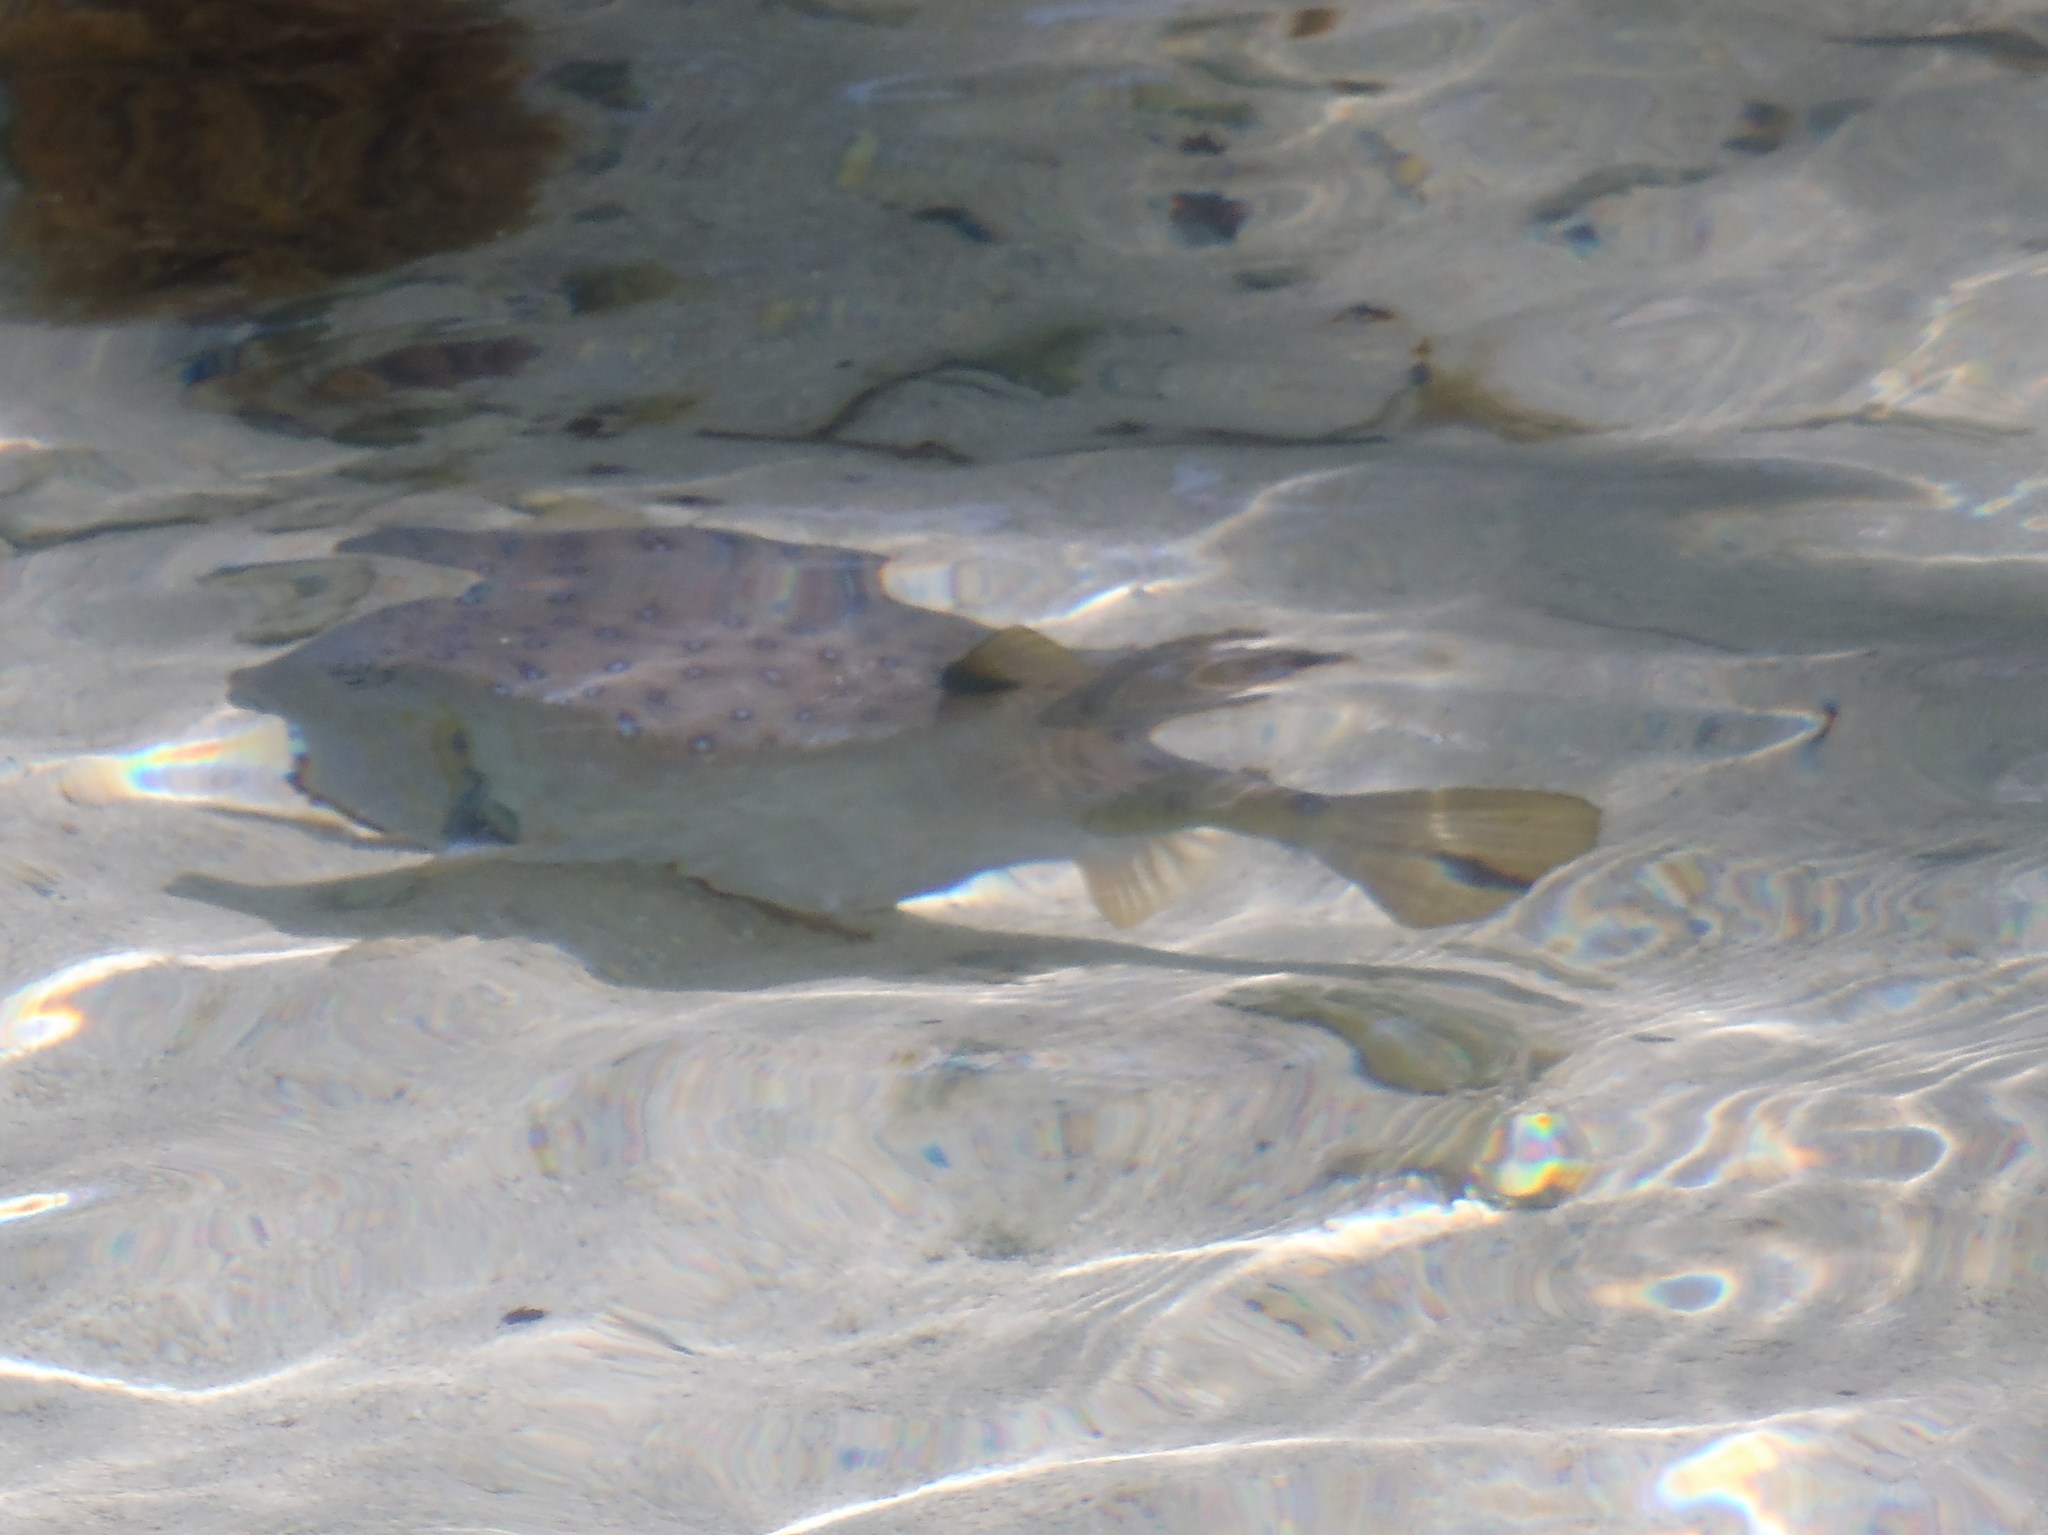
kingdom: Animalia
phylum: Chordata
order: Tetraodontiformes
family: Ostraciidae
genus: Ostracion
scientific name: Ostracion cubicus
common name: Cube trunkfish
